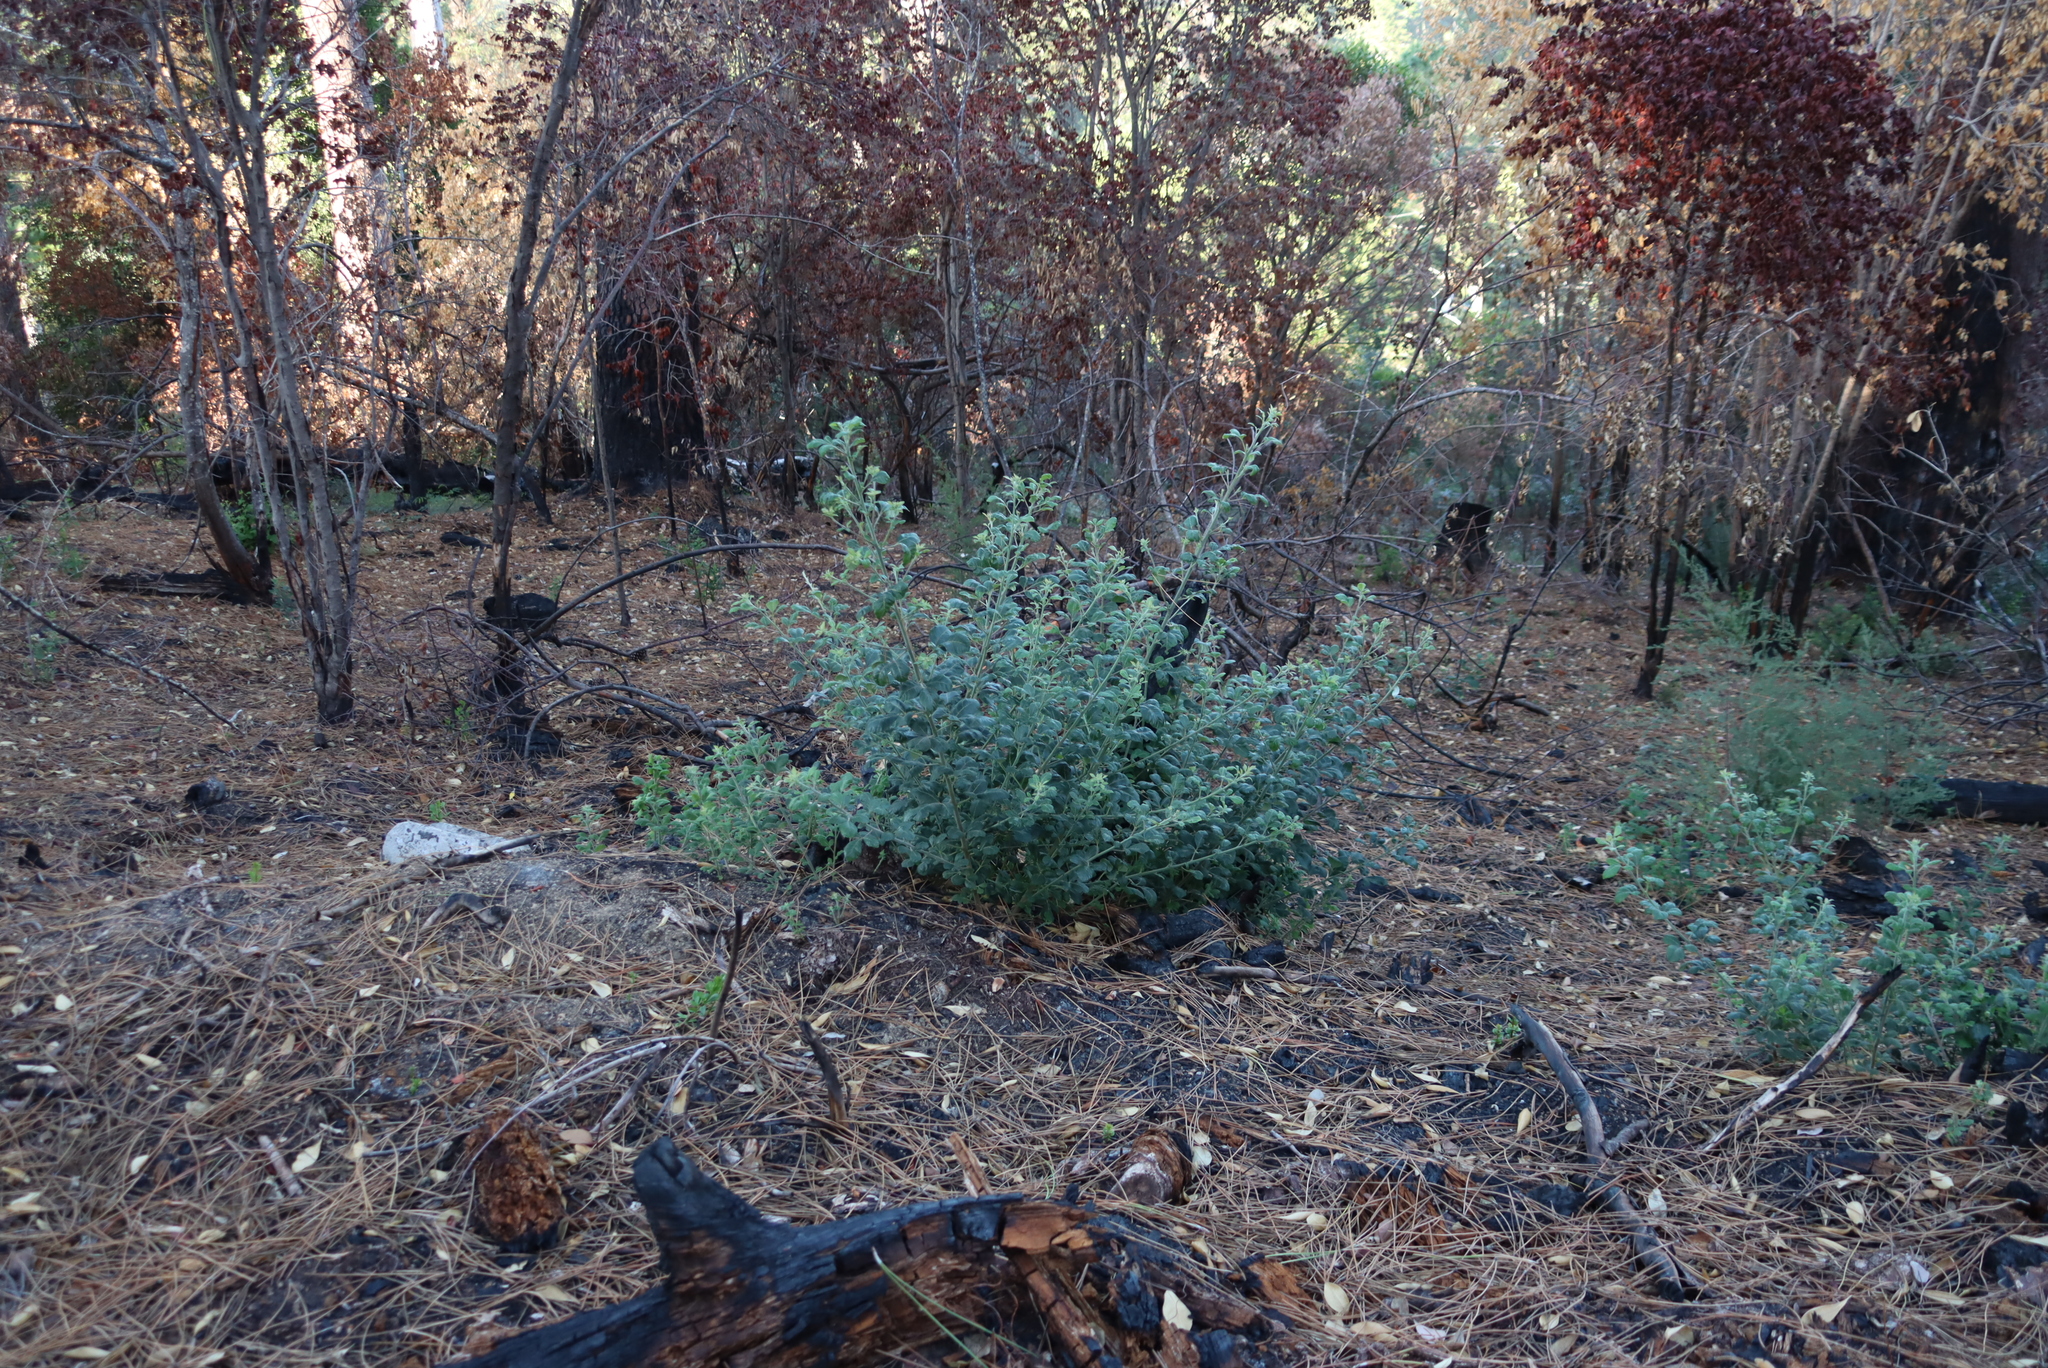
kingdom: Plantae
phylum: Tracheophyta
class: Magnoliopsida
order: Sapindales
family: Anacardiaceae
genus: Searsia
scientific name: Searsia tomentosa
